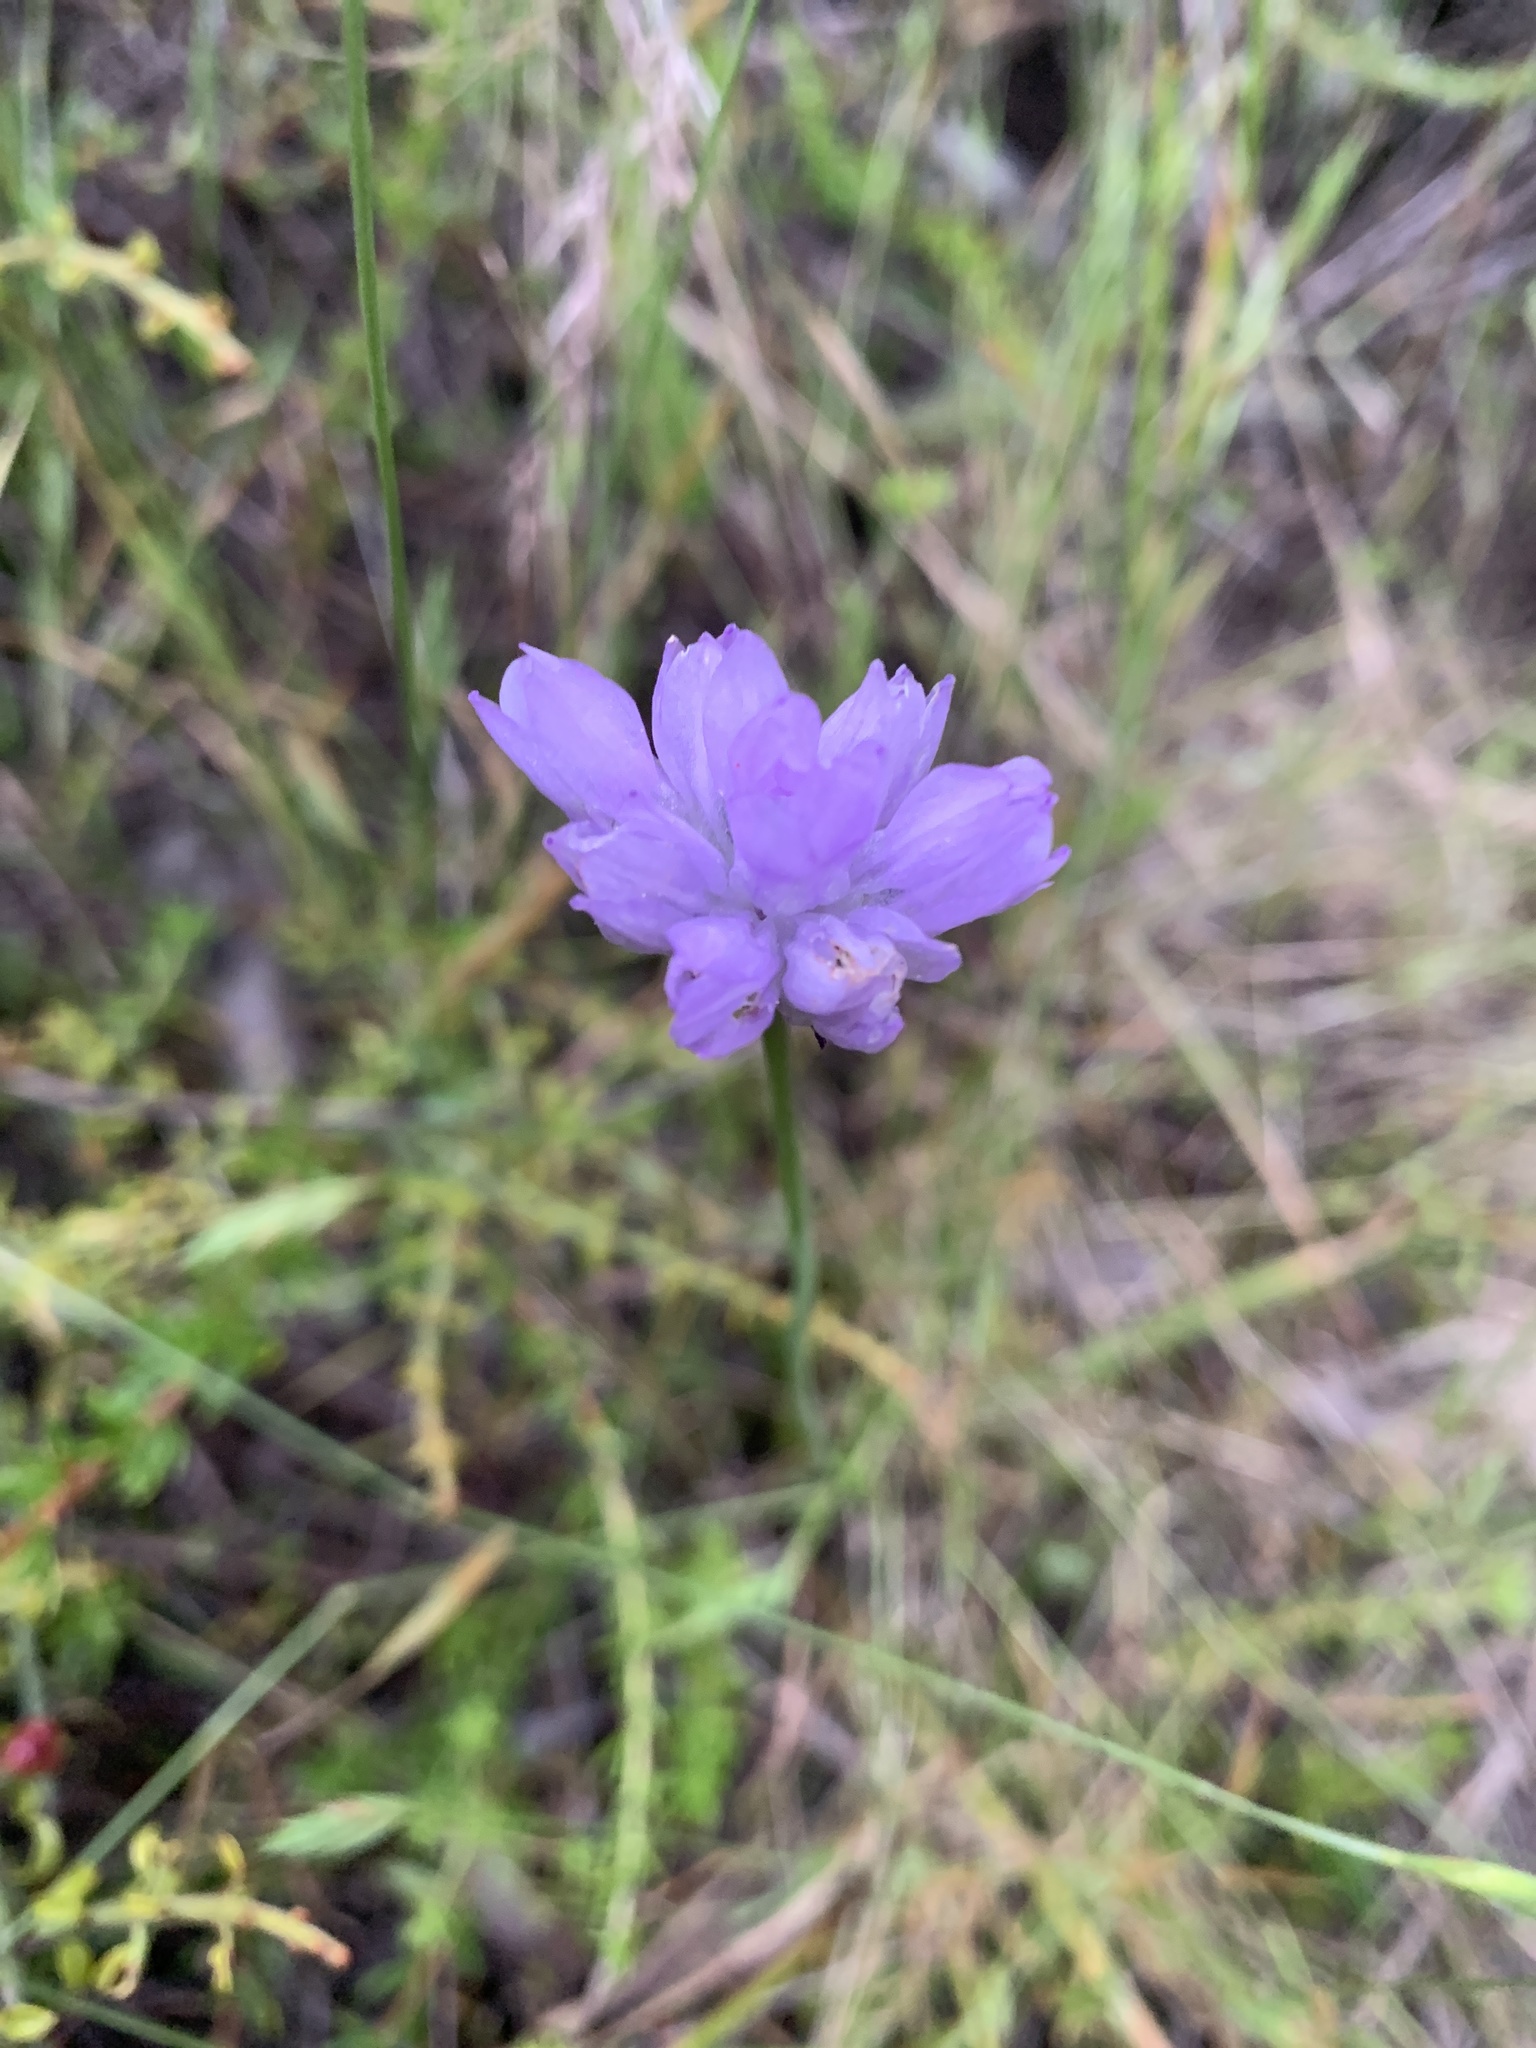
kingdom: Plantae
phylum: Tracheophyta
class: Liliopsida
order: Asparagales
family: Asparagaceae
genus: Dipterostemon
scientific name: Dipterostemon capitatus
